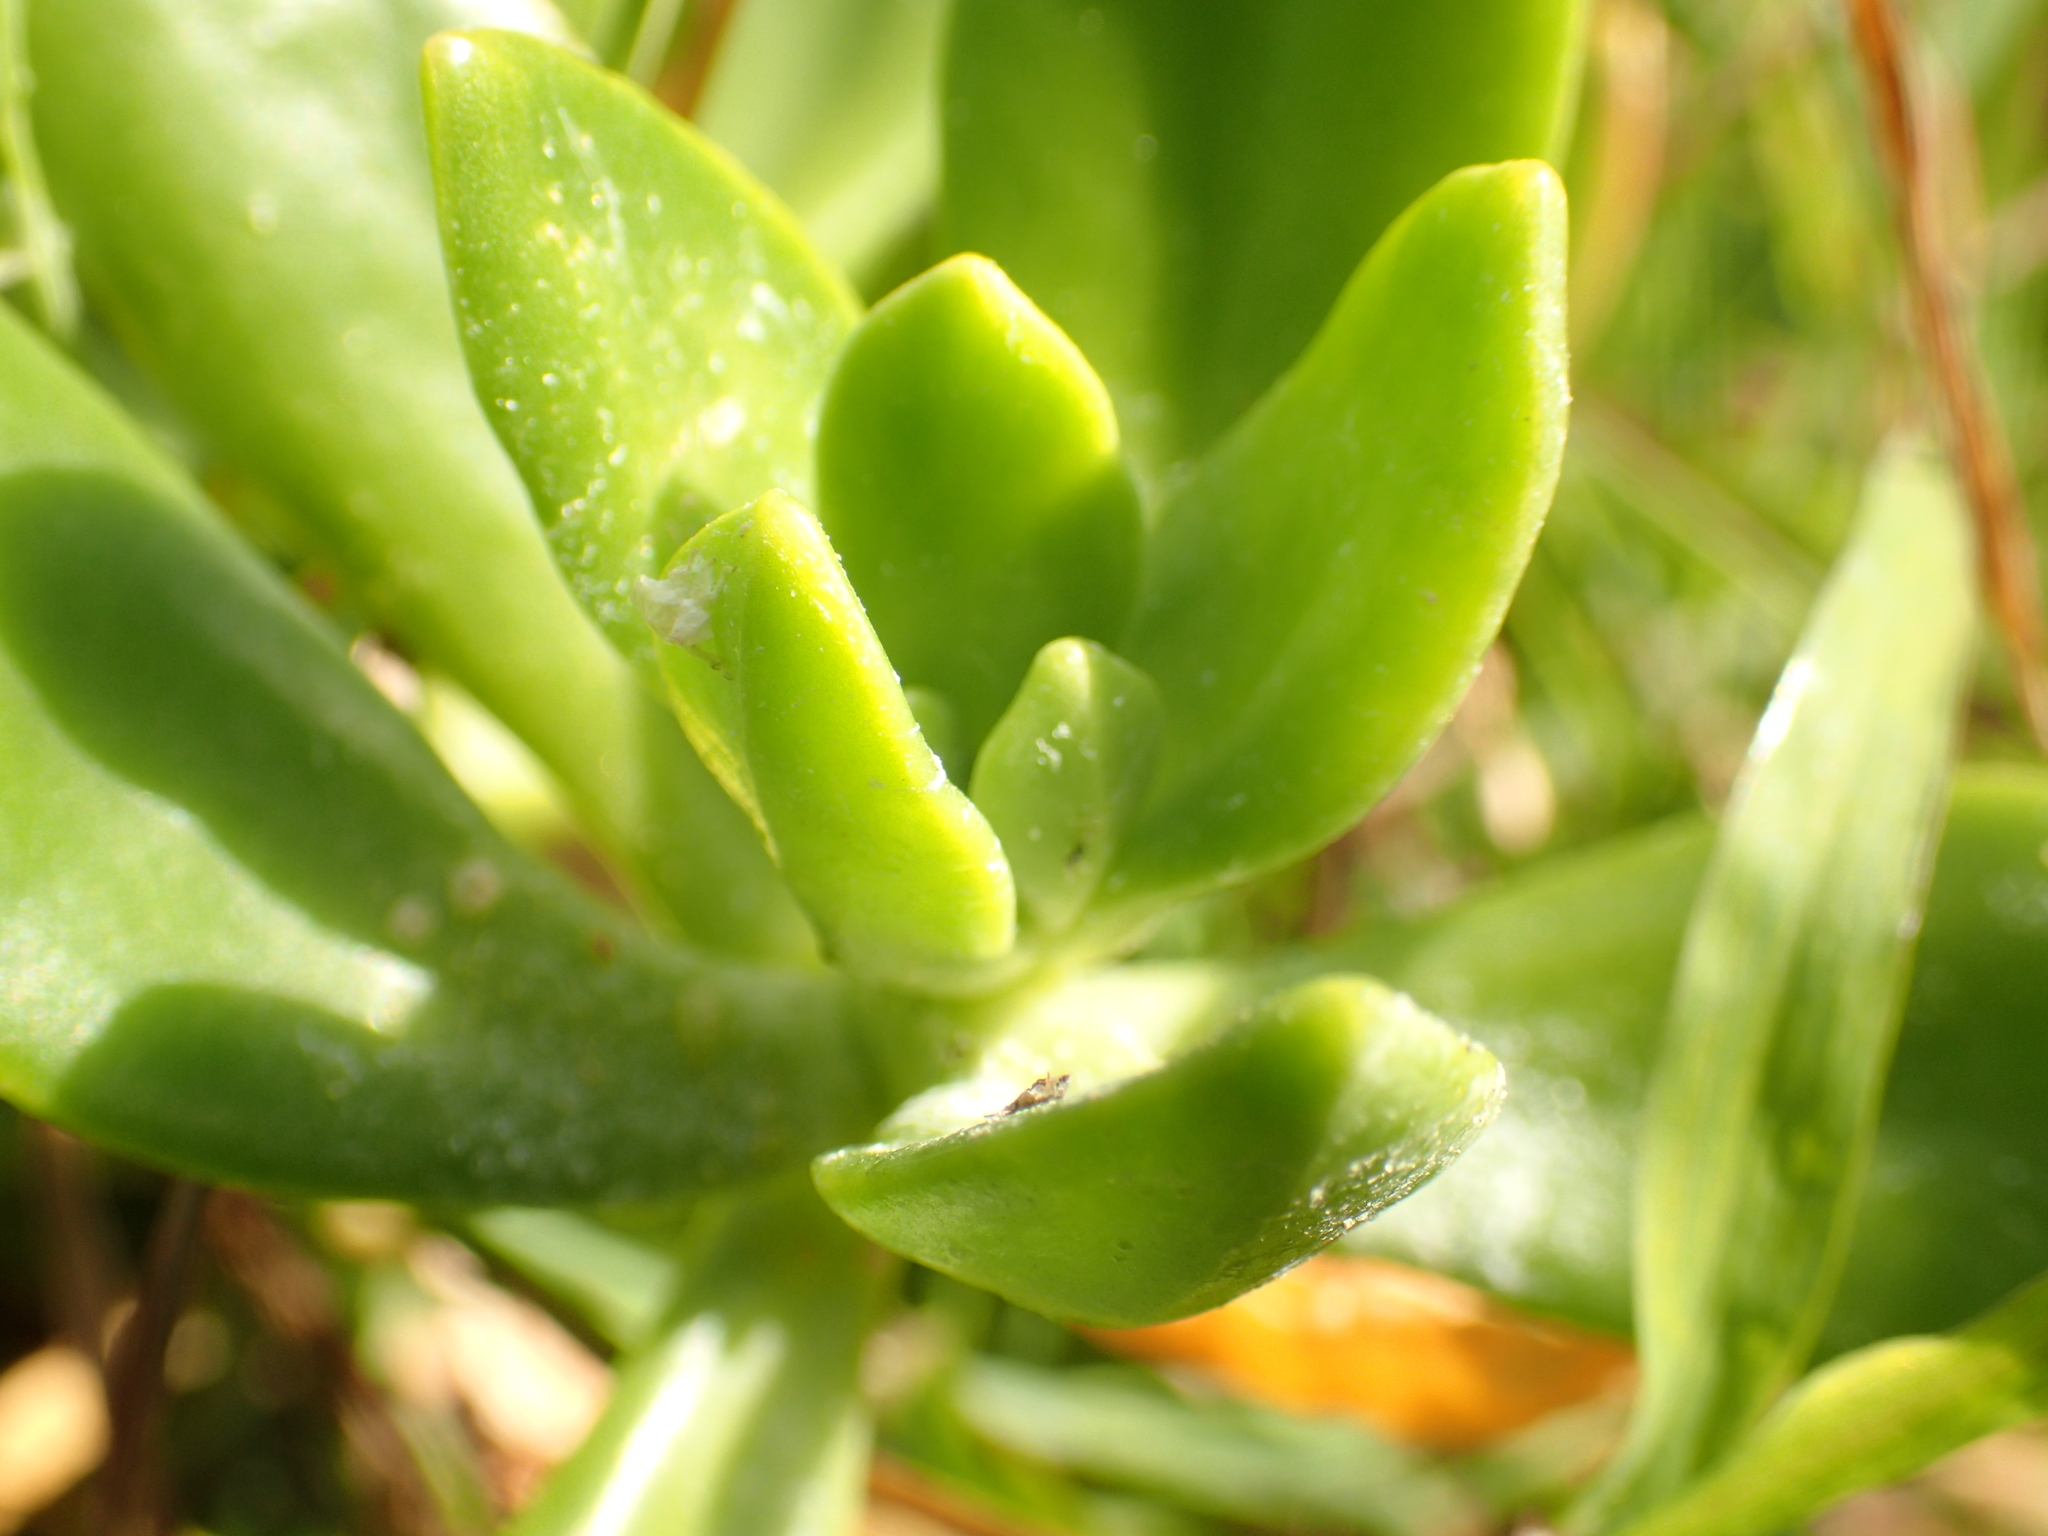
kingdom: Plantae
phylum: Tracheophyta
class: Magnoliopsida
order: Saxifragales
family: Crassulaceae
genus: Sedum
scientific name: Sedum praealtum
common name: Greater mexican-stonecrop
